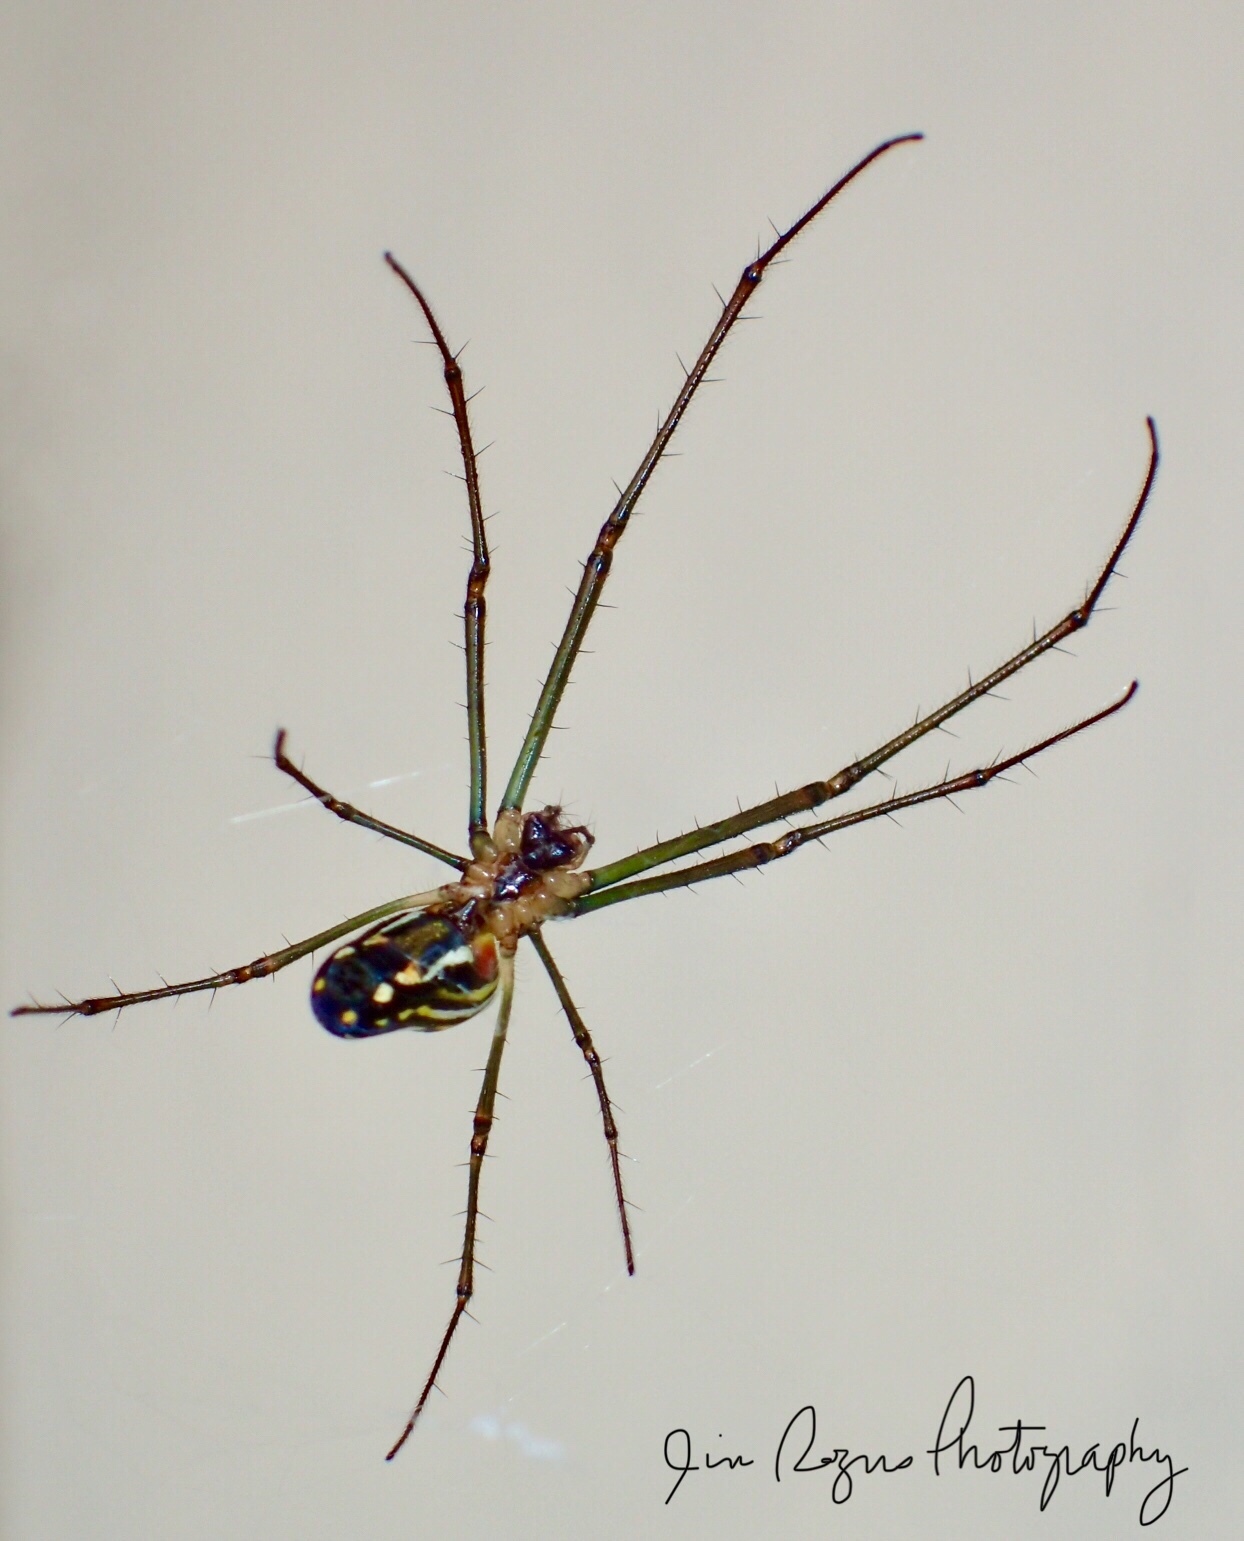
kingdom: Animalia
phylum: Arthropoda
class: Arachnida
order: Araneae
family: Tetragnathidae
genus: Leucauge
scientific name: Leucauge argyra
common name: Longjawed orb weavers
